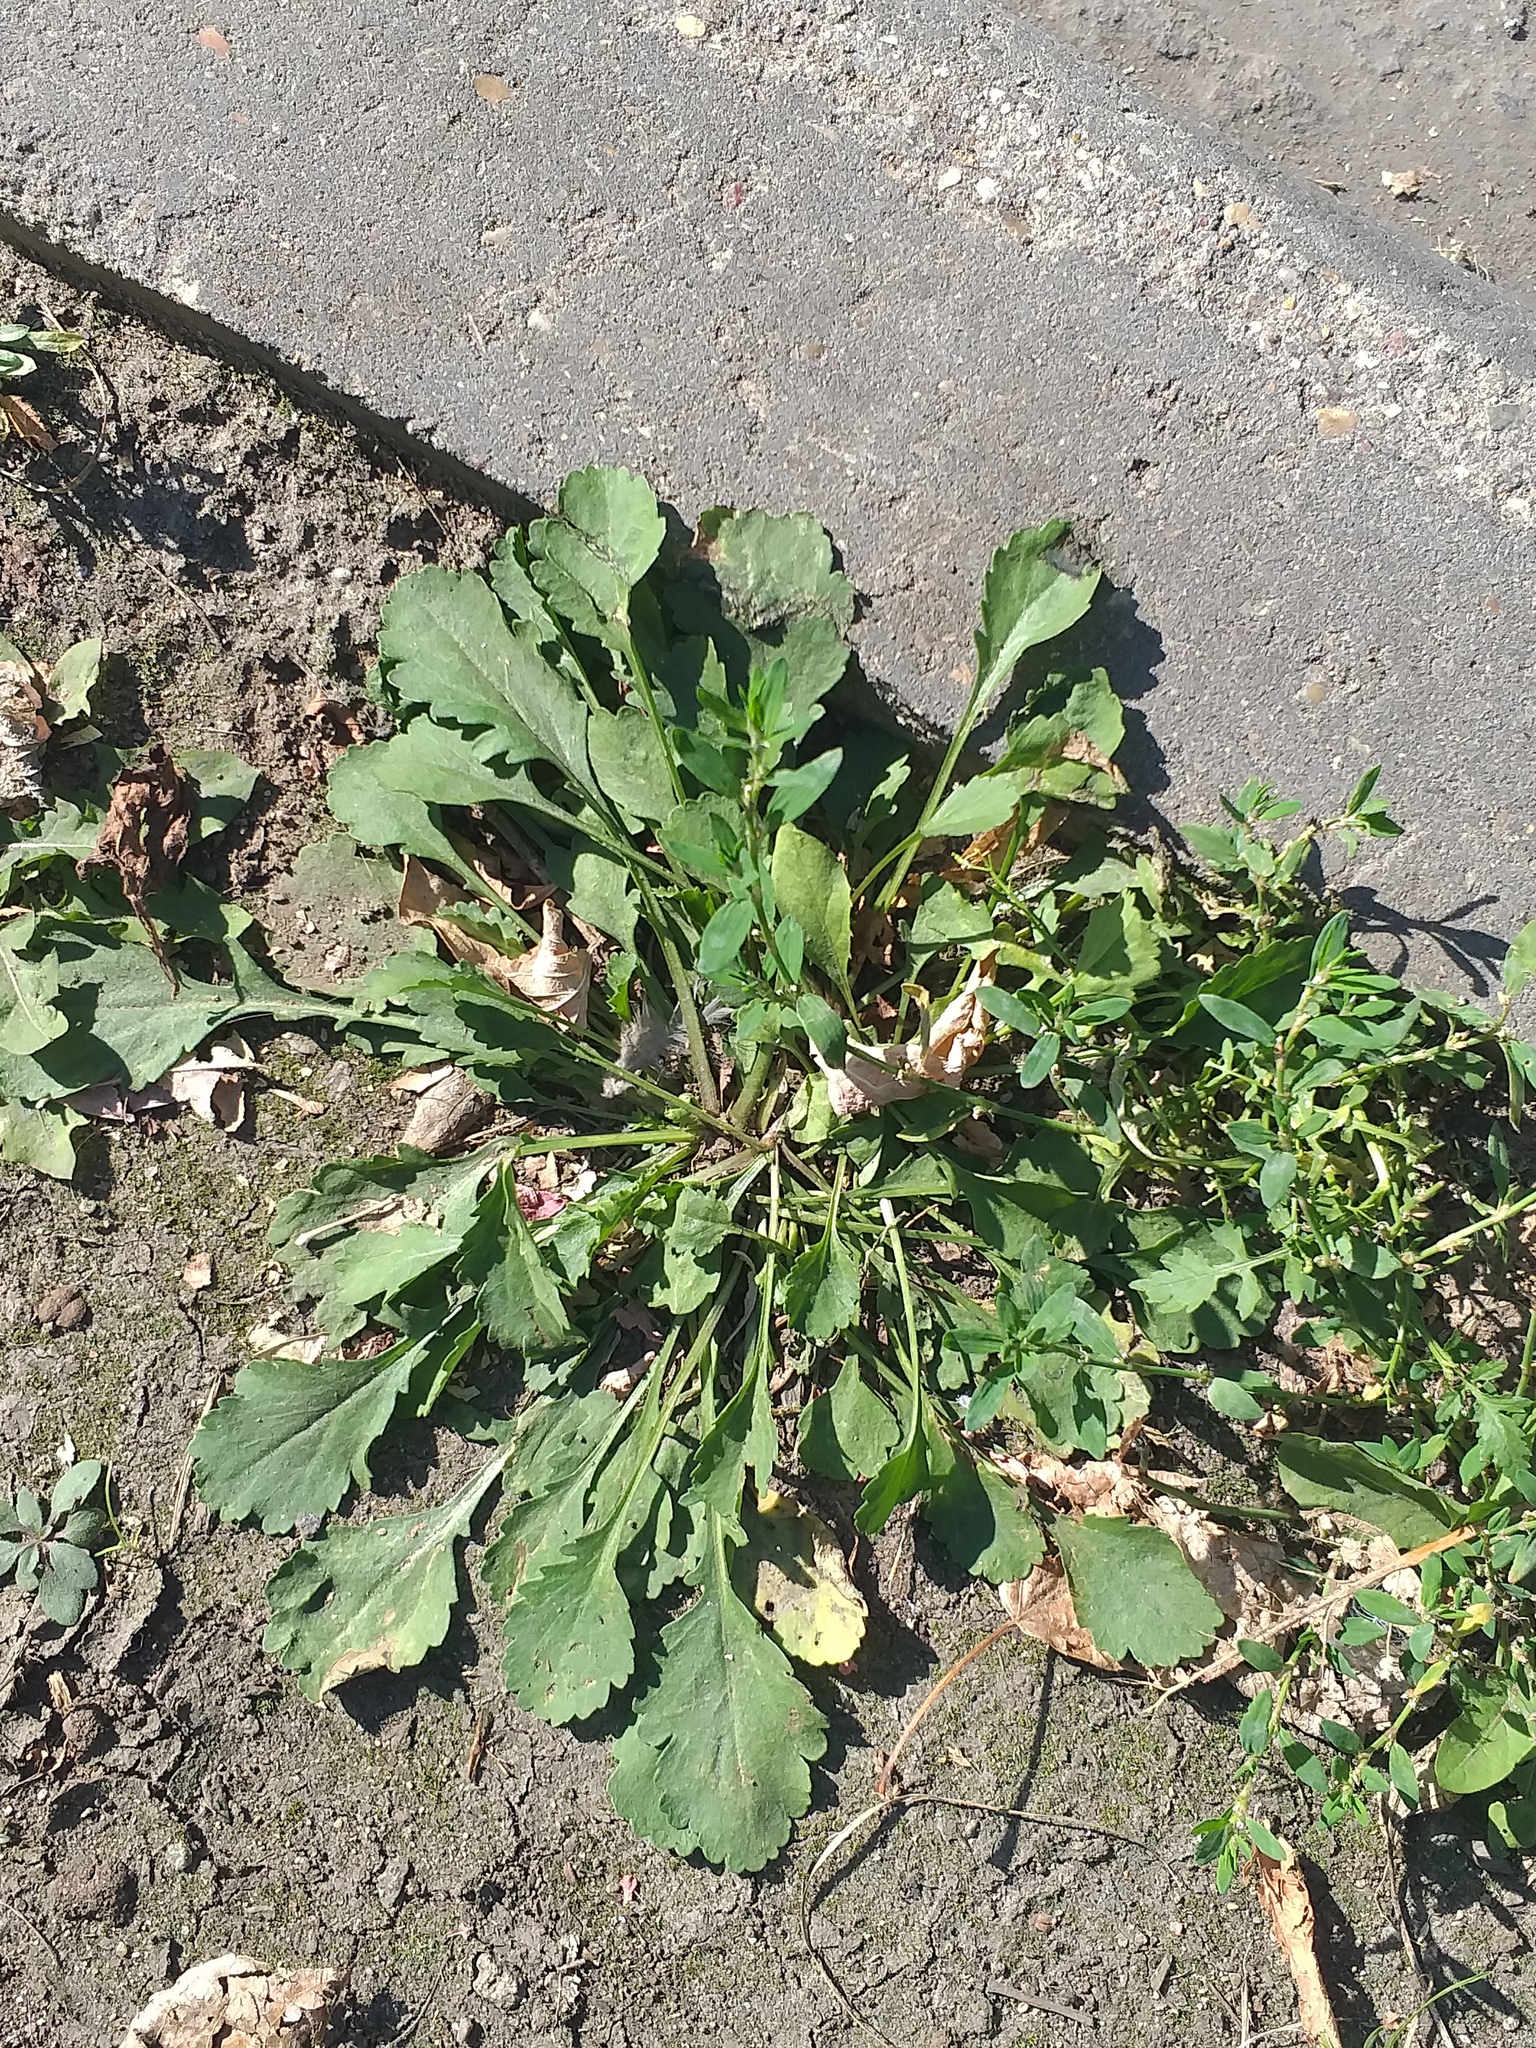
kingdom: Plantae
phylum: Tracheophyta
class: Magnoliopsida
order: Asterales
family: Asteraceae
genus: Leucanthemum
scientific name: Leucanthemum vulgare
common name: Oxeye daisy
